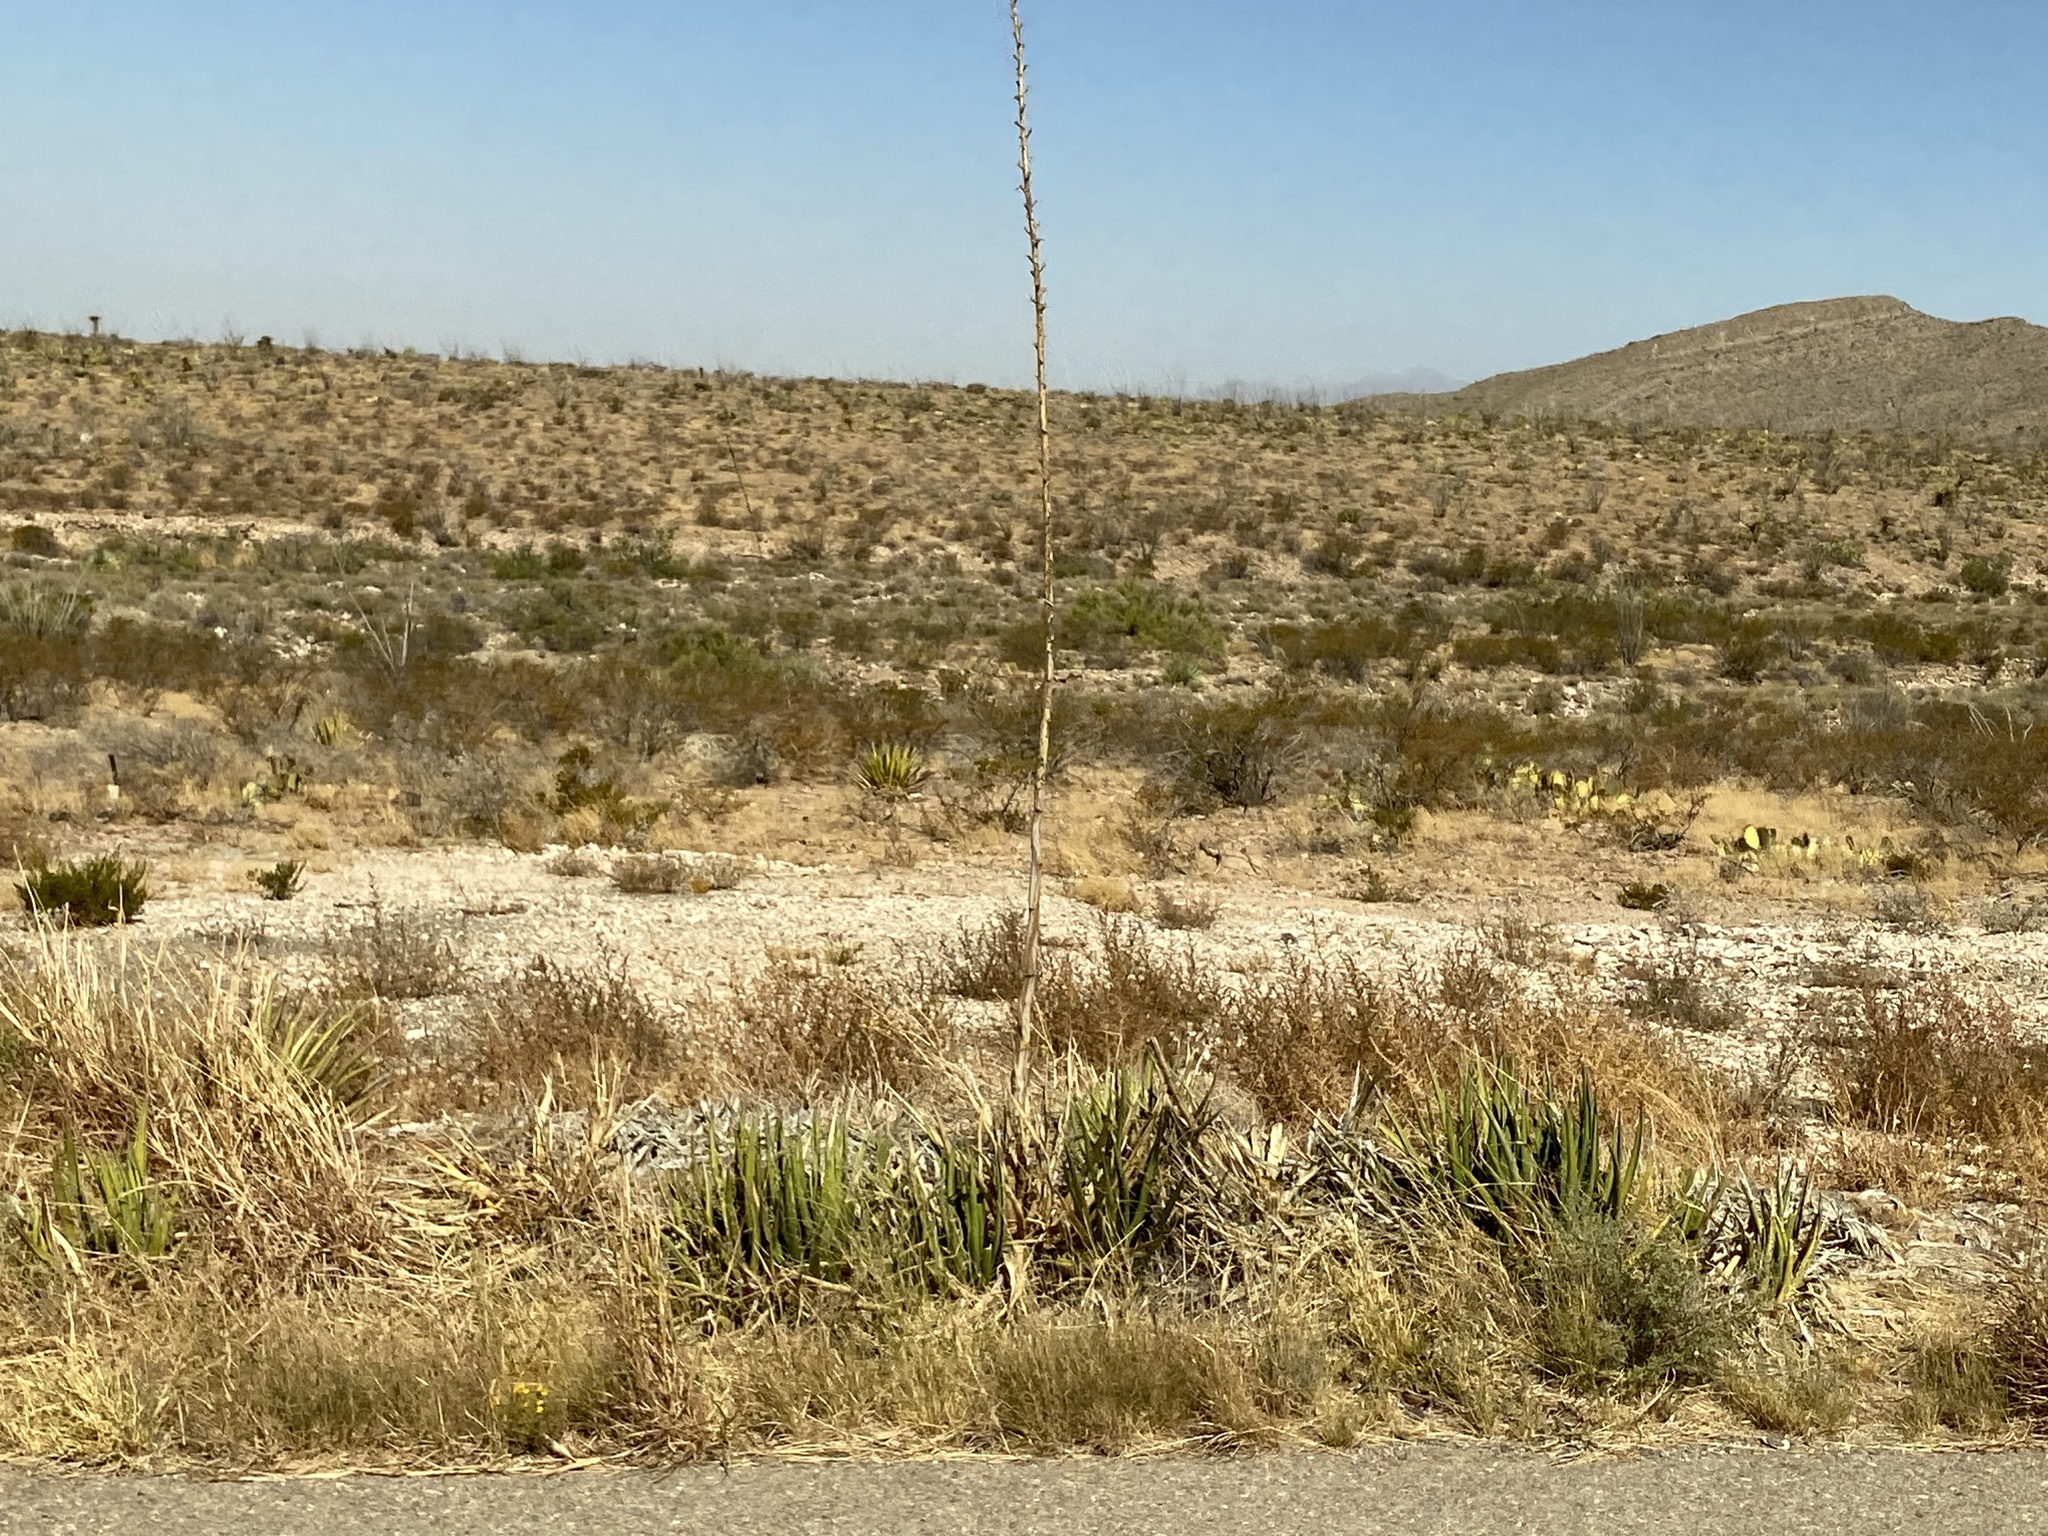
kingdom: Plantae
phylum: Tracheophyta
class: Liliopsida
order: Asparagales
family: Asparagaceae
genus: Agave
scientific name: Agave lechuguilla
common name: Lecheguilla agave
